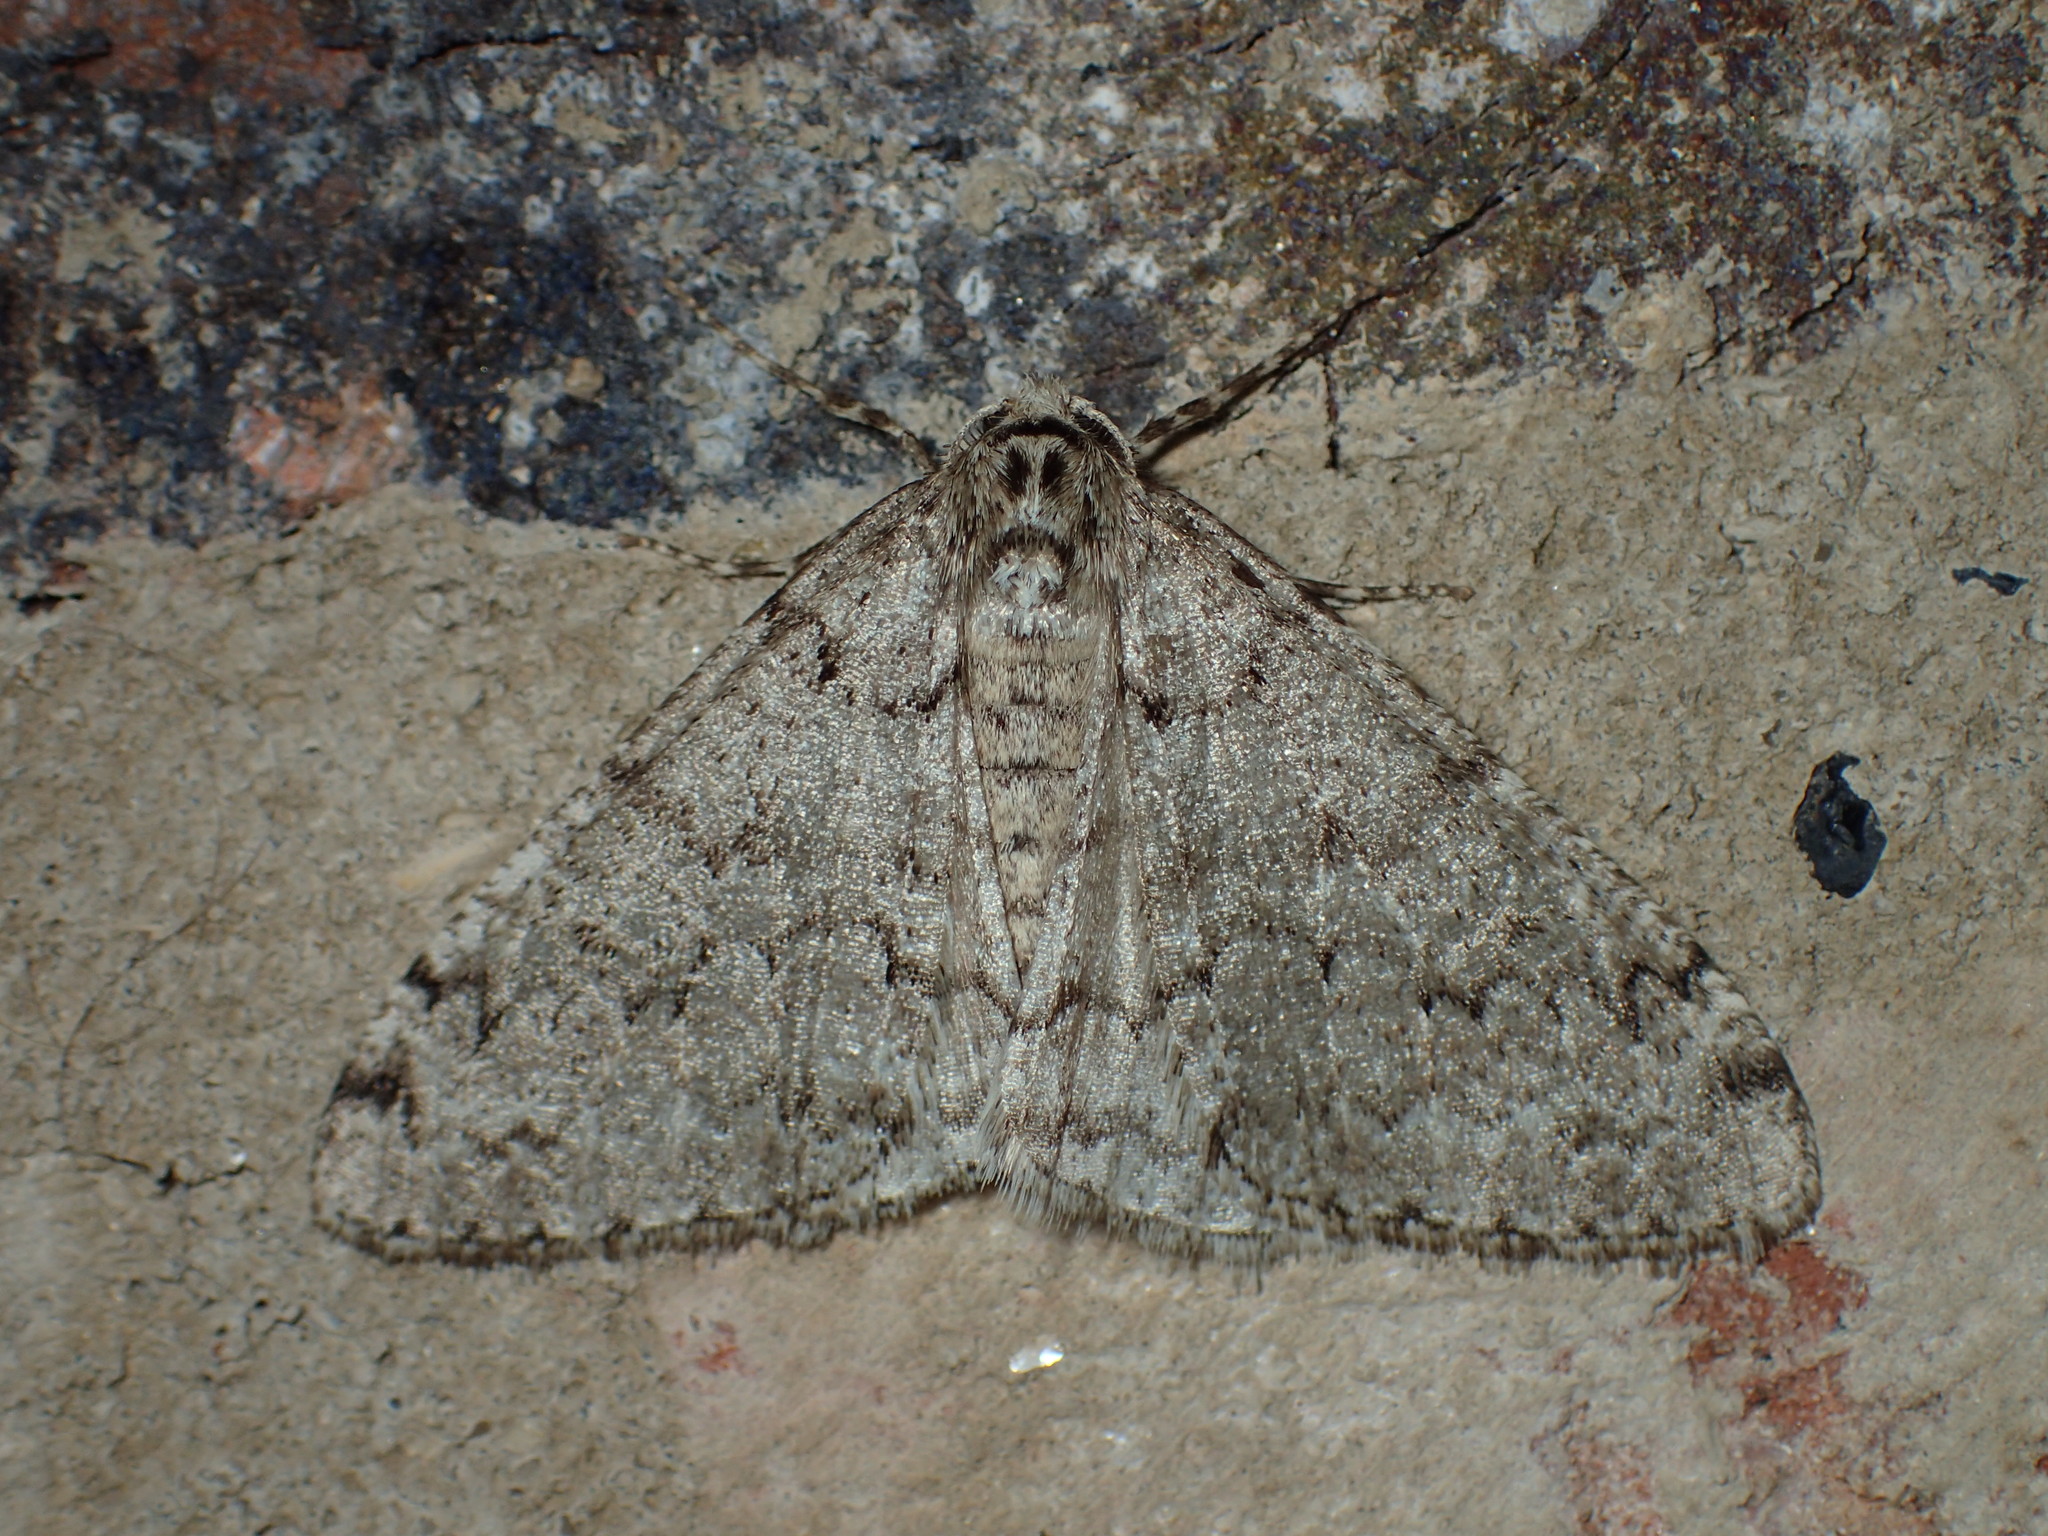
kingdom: Animalia
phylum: Arthropoda
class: Insecta
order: Lepidoptera
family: Geometridae
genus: Phigalia
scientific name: Phigalia denticulata
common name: Toothed phigalia
